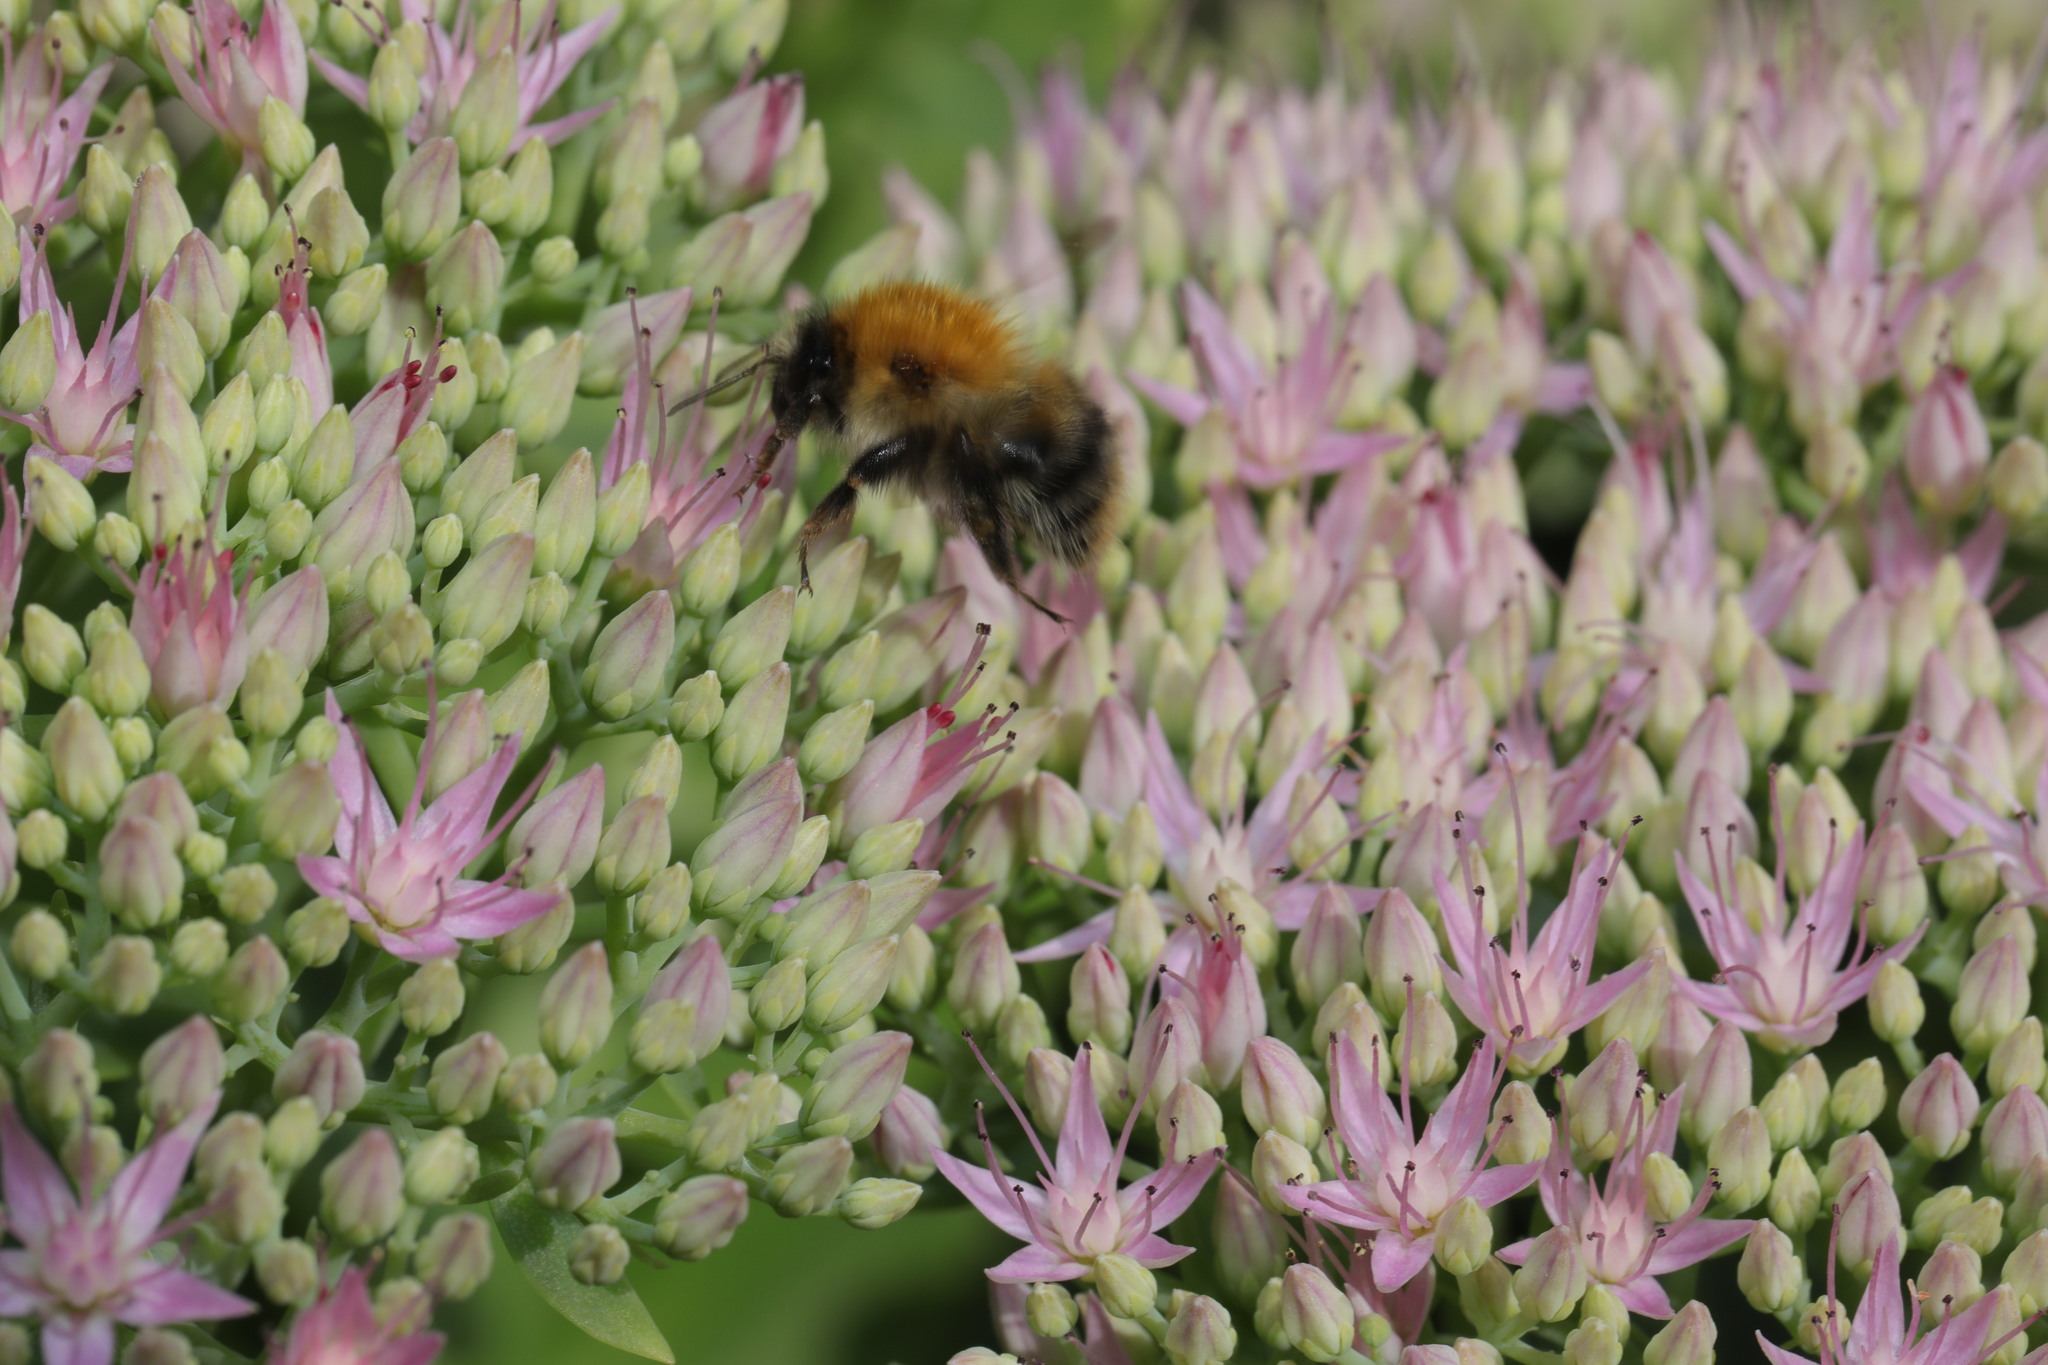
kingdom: Animalia
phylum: Arthropoda
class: Insecta
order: Hymenoptera
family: Apidae
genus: Bombus
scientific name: Bombus pascuorum
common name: Common carder bee
